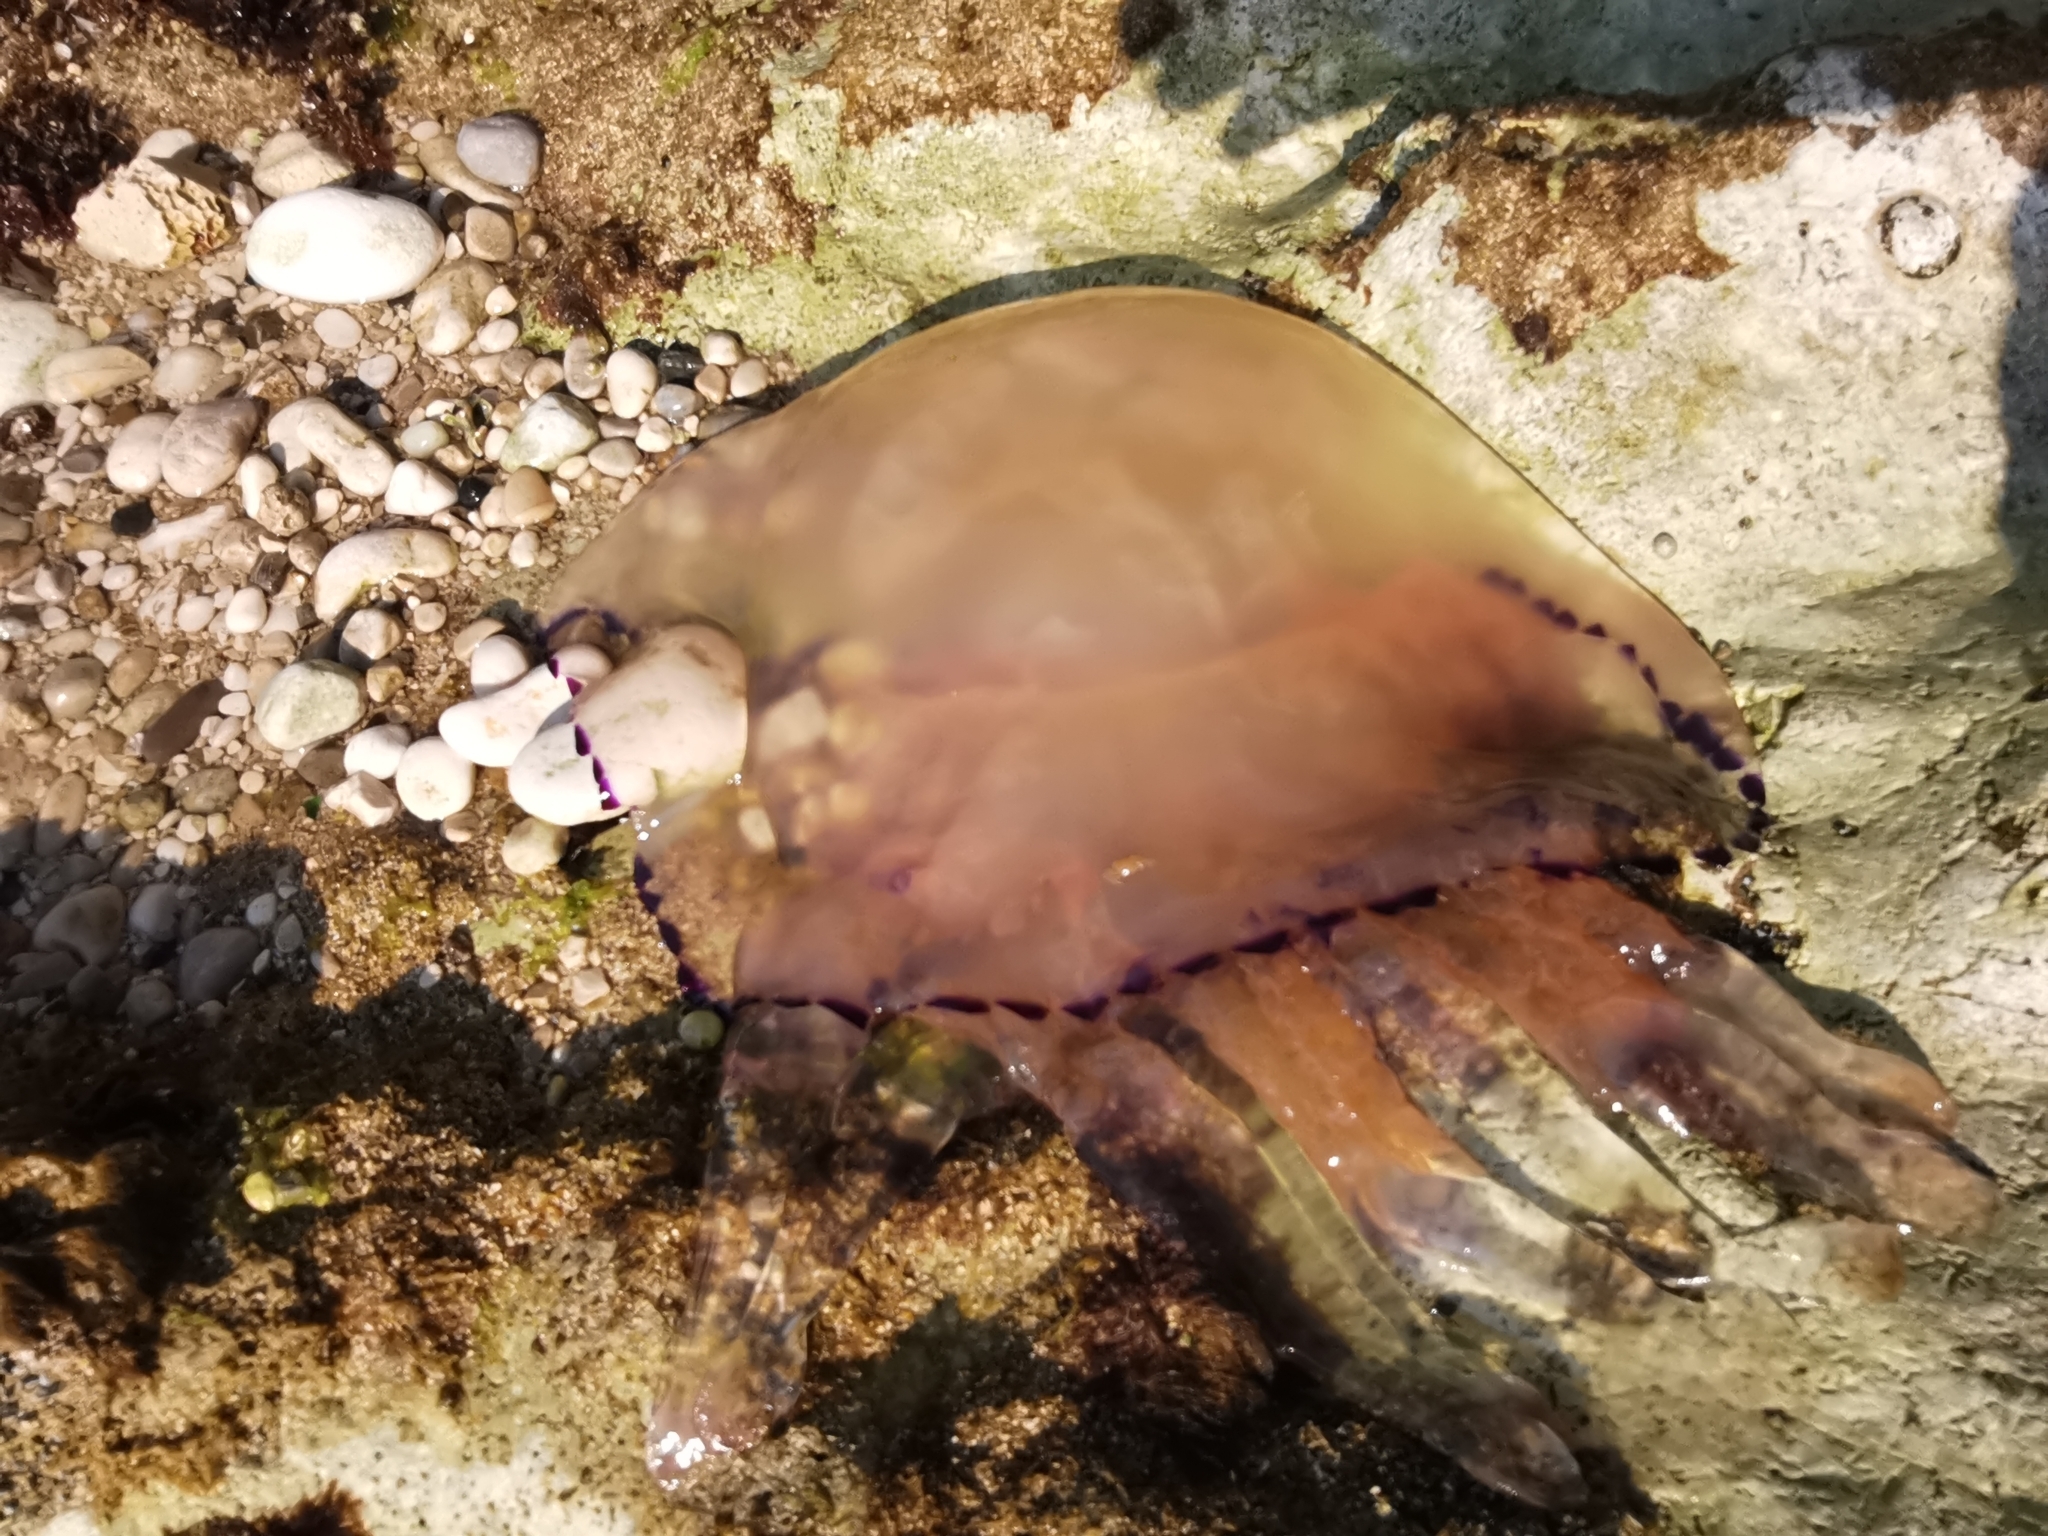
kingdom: Animalia
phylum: Cnidaria
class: Scyphozoa
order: Rhizostomeae
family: Rhizostomatidae
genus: Rhizostoma
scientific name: Rhizostoma pulmo
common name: Barrel jellyfish
